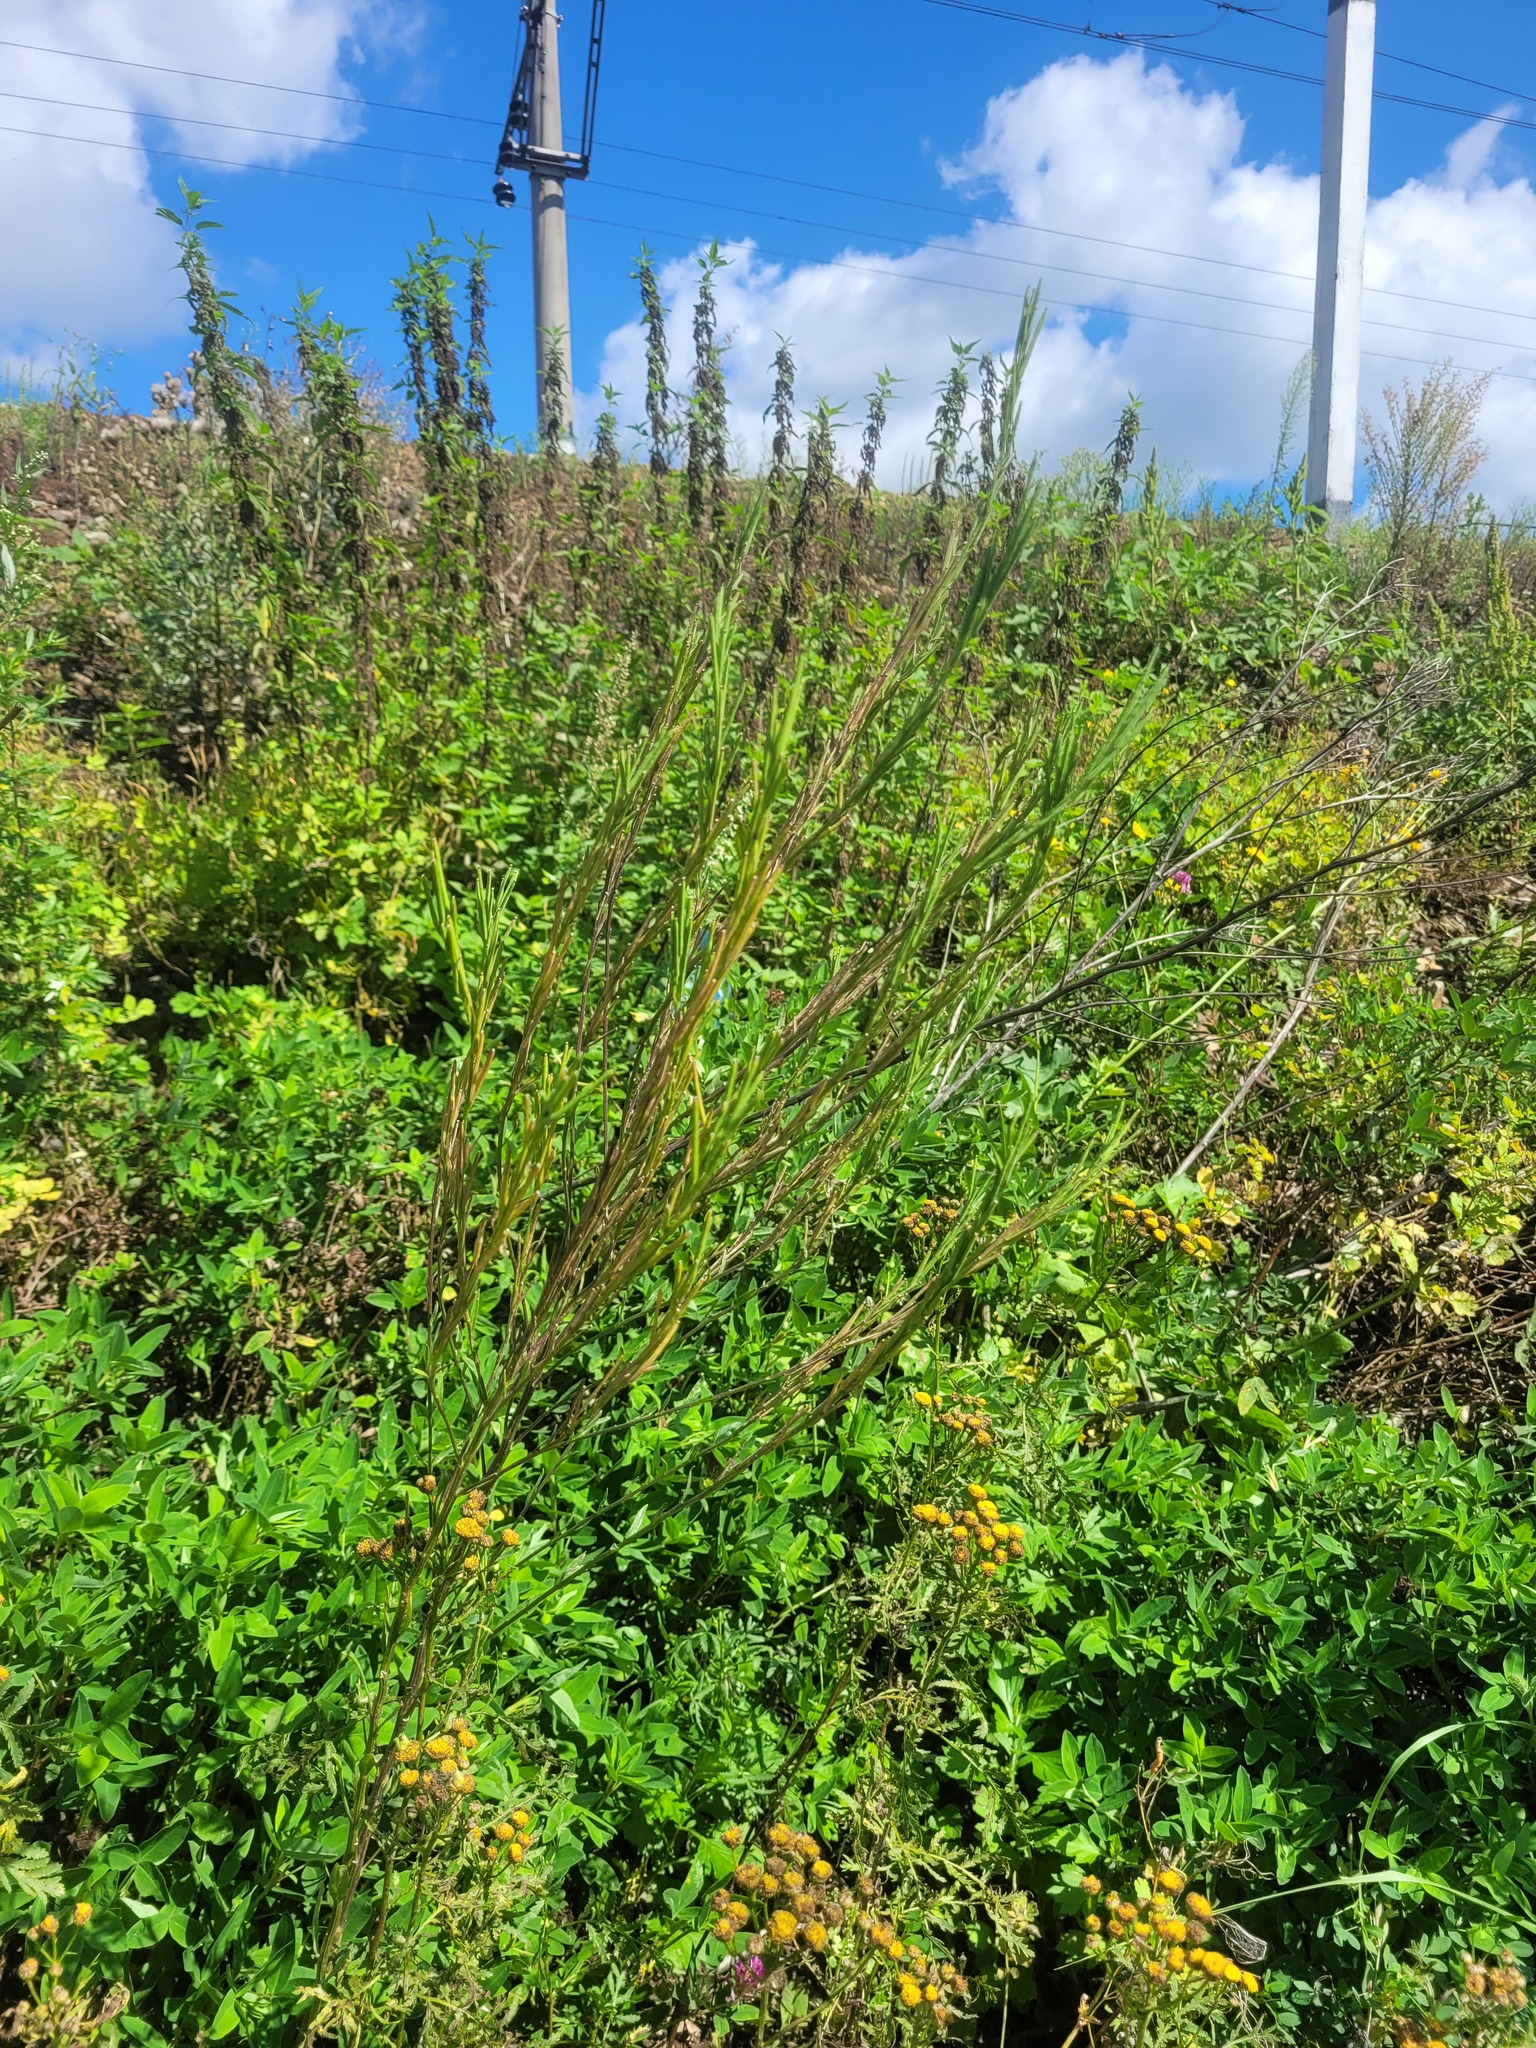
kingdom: Plantae
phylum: Tracheophyta
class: Magnoliopsida
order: Brassicales
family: Brassicaceae
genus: Erysimum
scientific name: Erysimum hieraciifolium
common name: European wallflower
